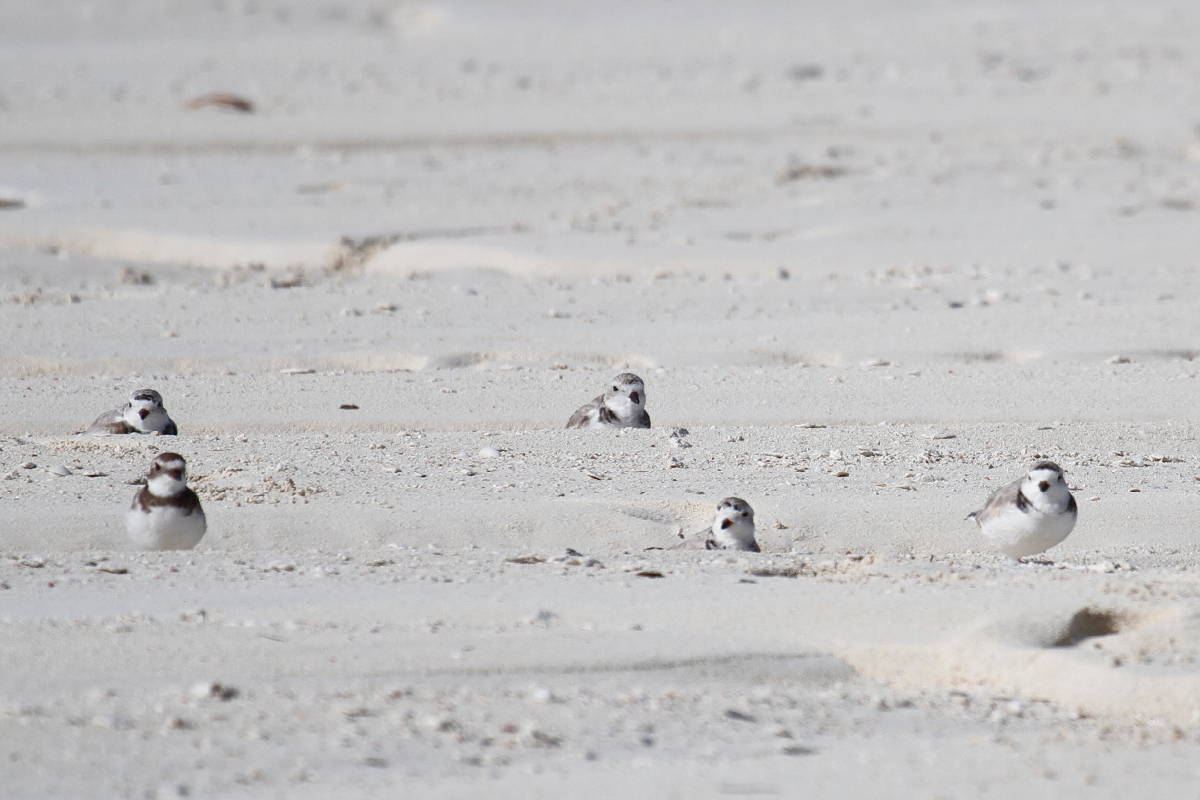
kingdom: Animalia
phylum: Chordata
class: Aves
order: Charadriiformes
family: Charadriidae
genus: Charadrius
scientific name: Charadrius melodus
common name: Piping plover
